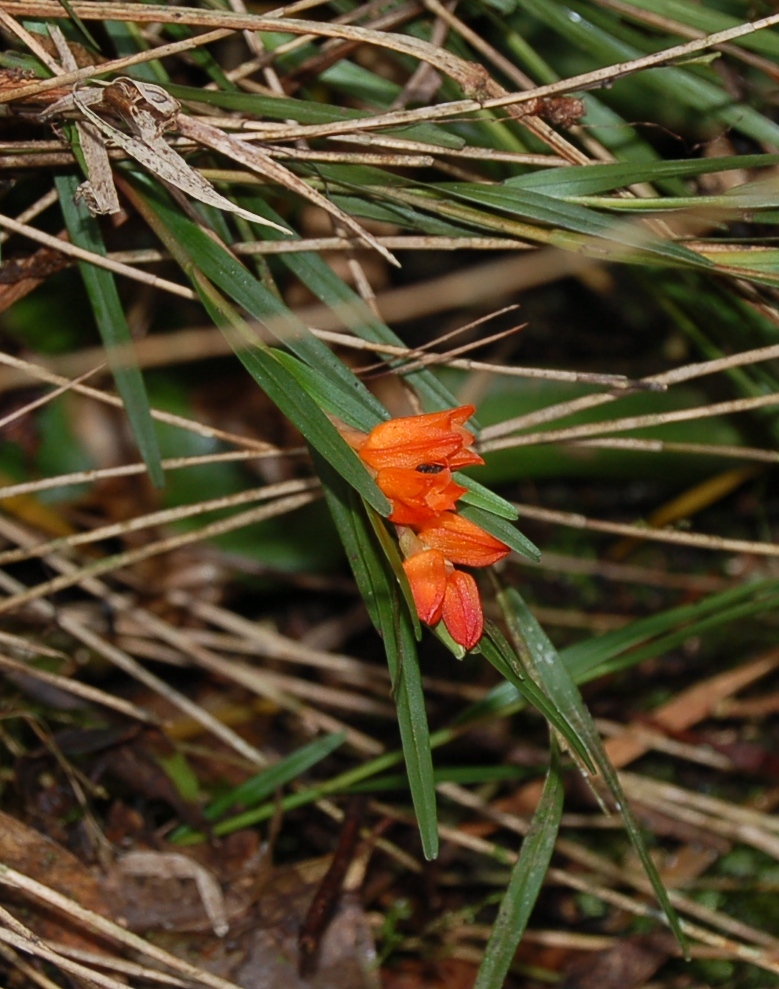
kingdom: Plantae
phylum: Tracheophyta
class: Liliopsida
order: Asparagales
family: Orchidaceae
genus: Isochilus
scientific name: Isochilus aurantiacus
